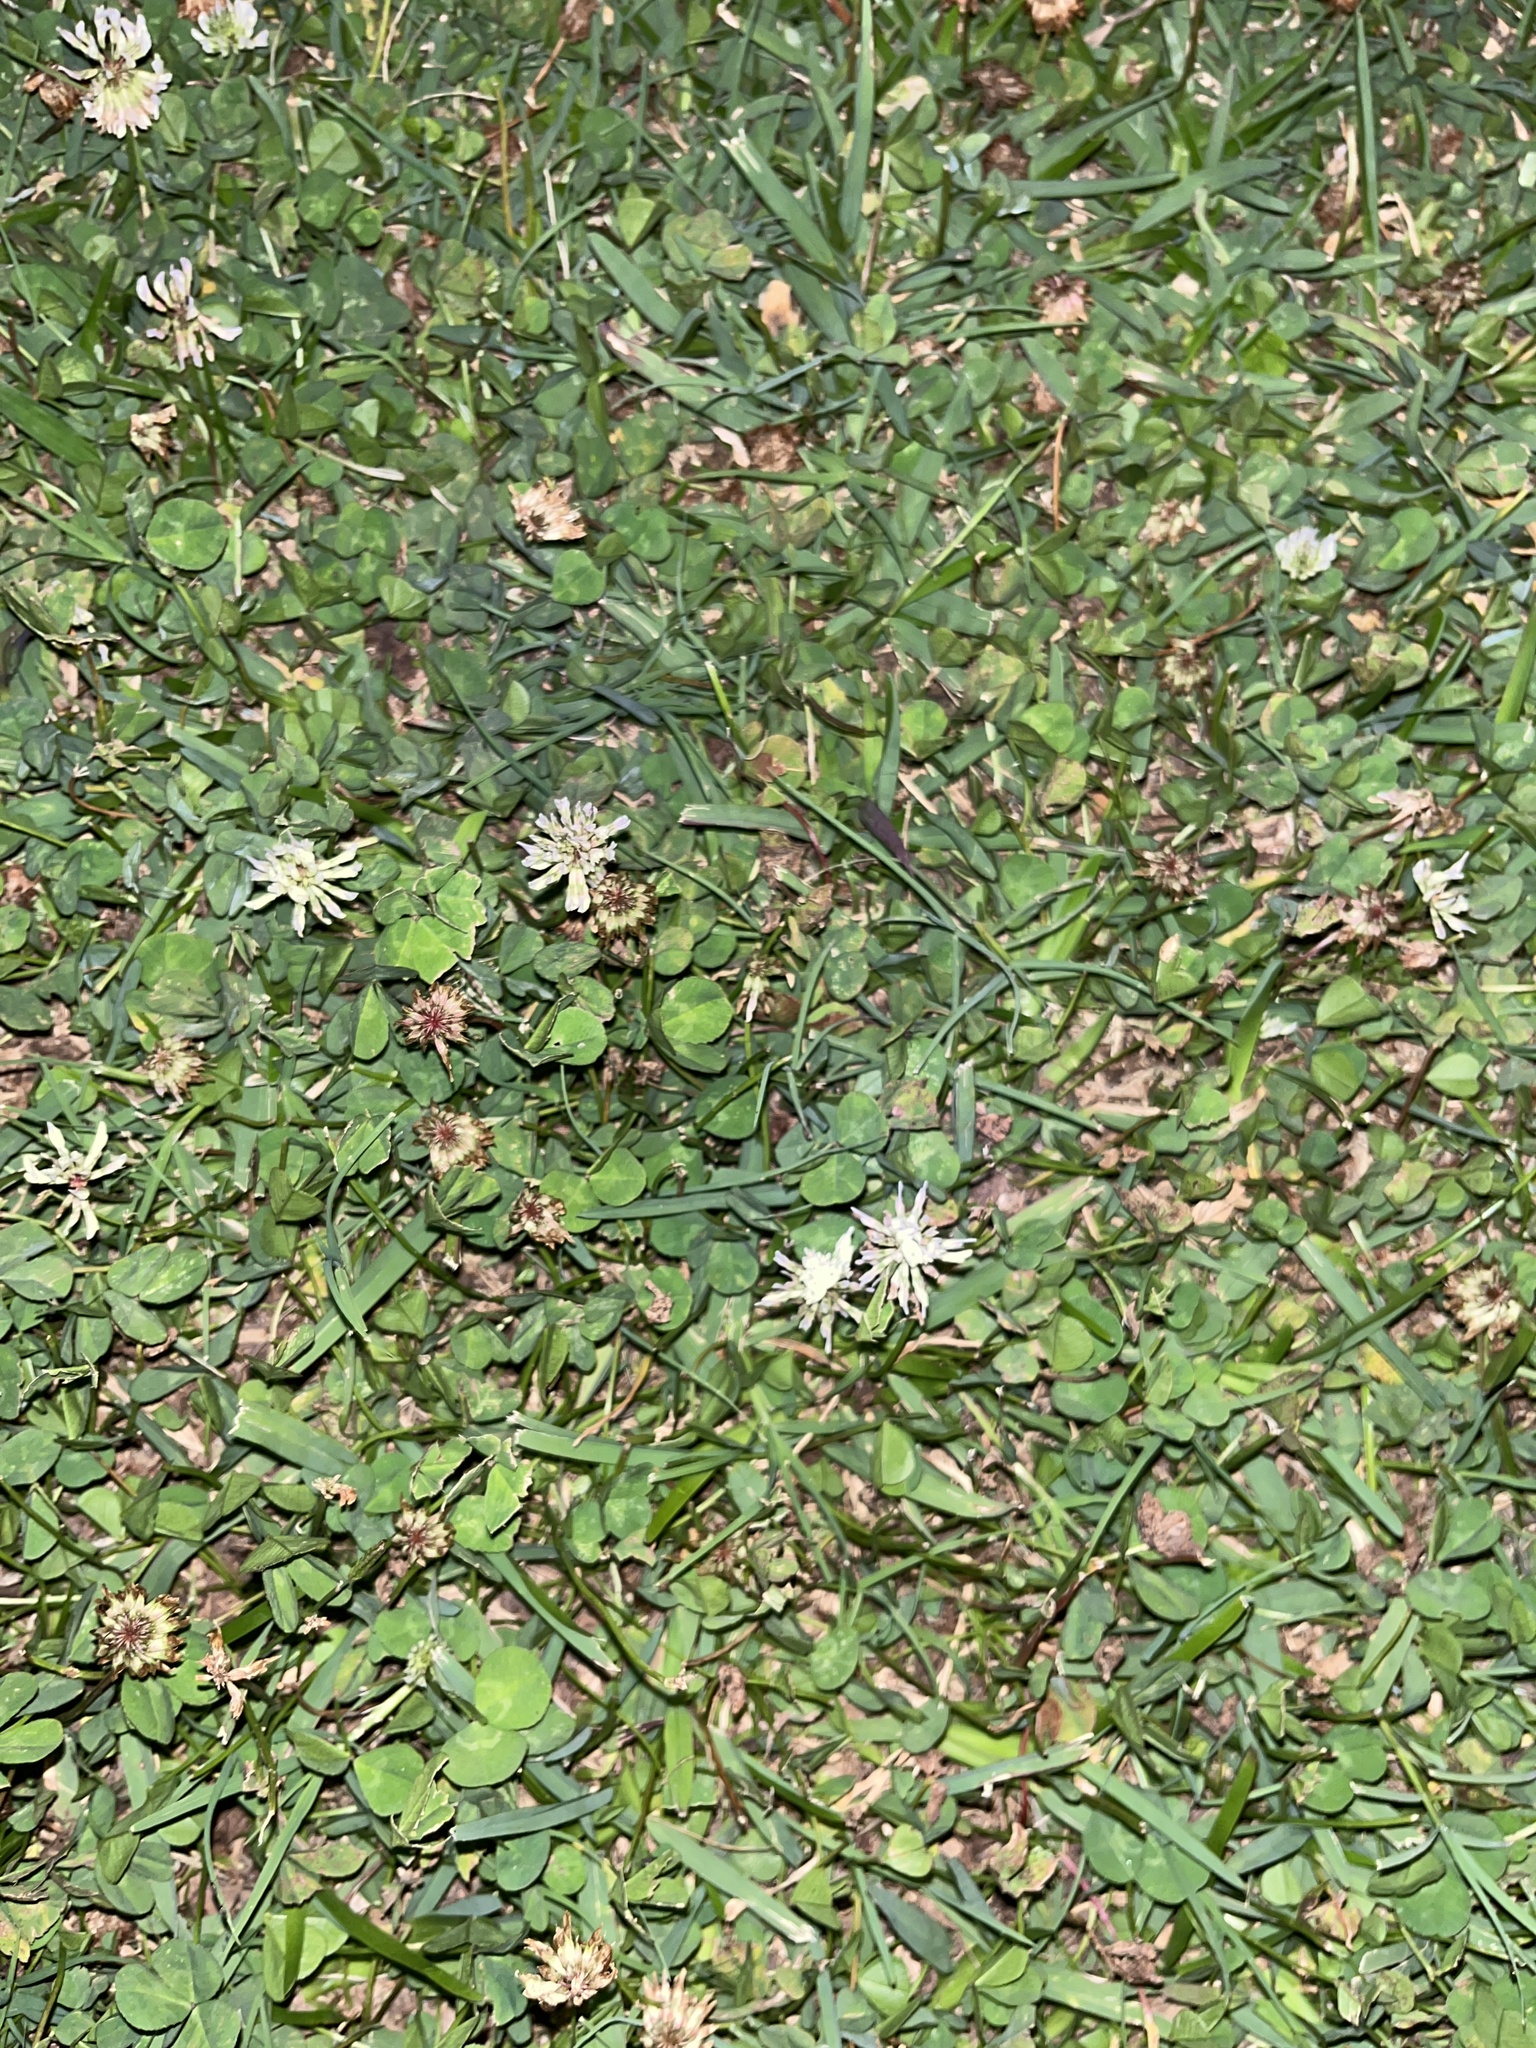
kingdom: Plantae
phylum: Tracheophyta
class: Magnoliopsida
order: Fabales
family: Fabaceae
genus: Trifolium
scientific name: Trifolium repens
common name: White clover
